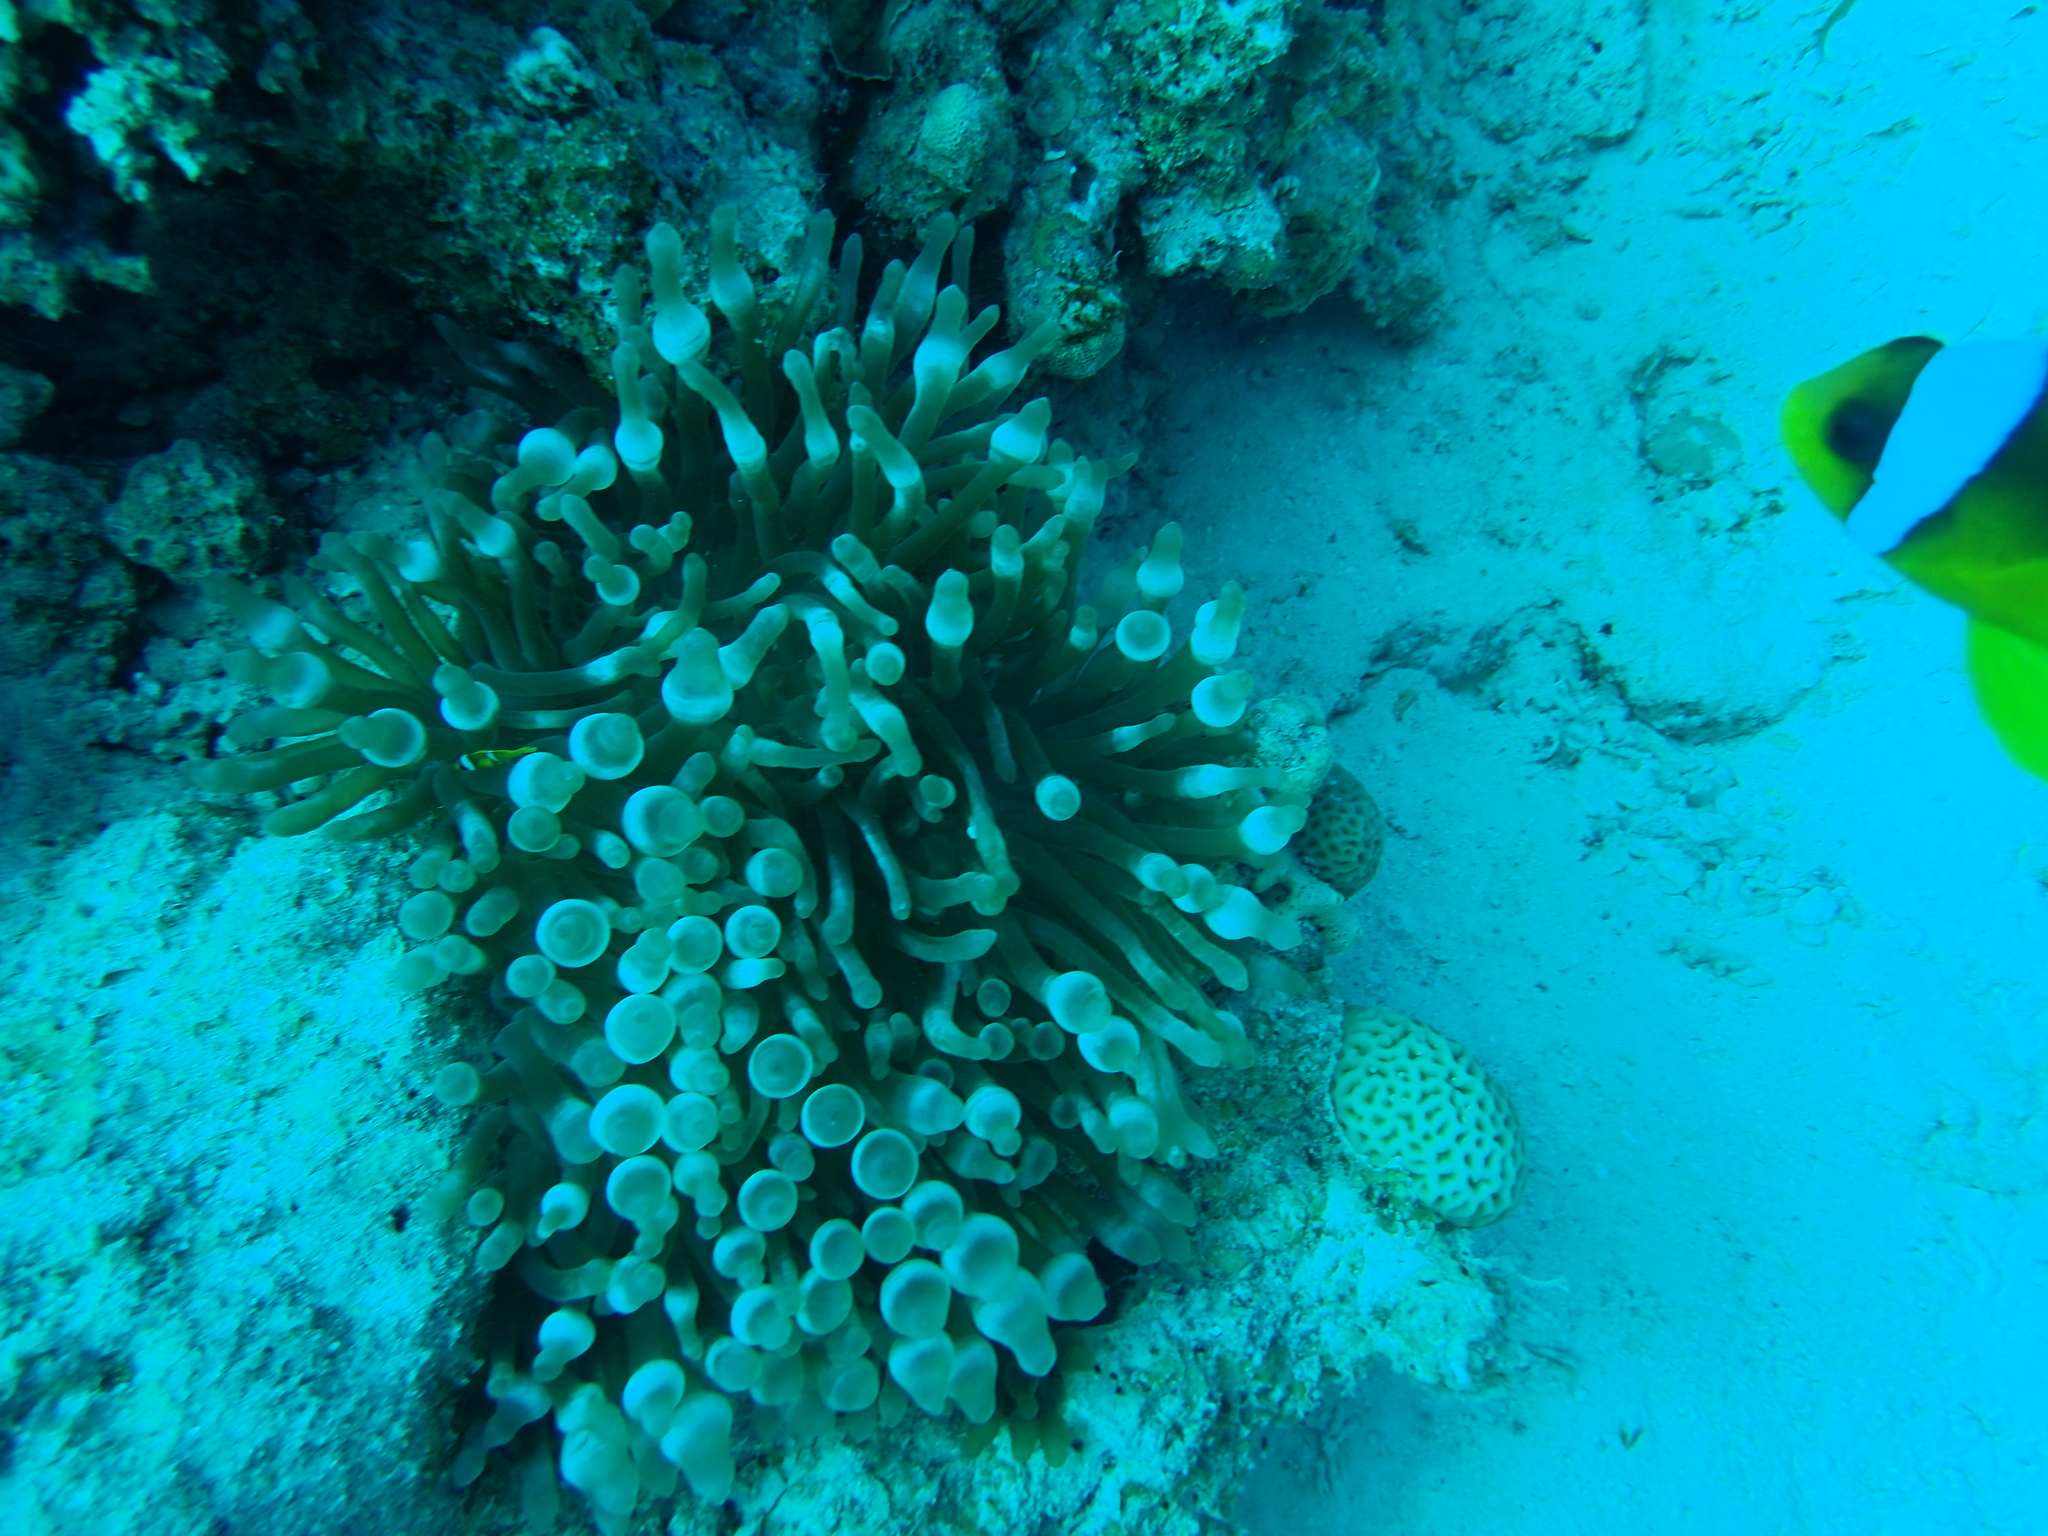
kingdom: Animalia
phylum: Cnidaria
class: Anthozoa
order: Actiniaria
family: Actiniidae
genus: Entacmaea
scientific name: Entacmaea quadricolor
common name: Bulb tentacle sea anemone
